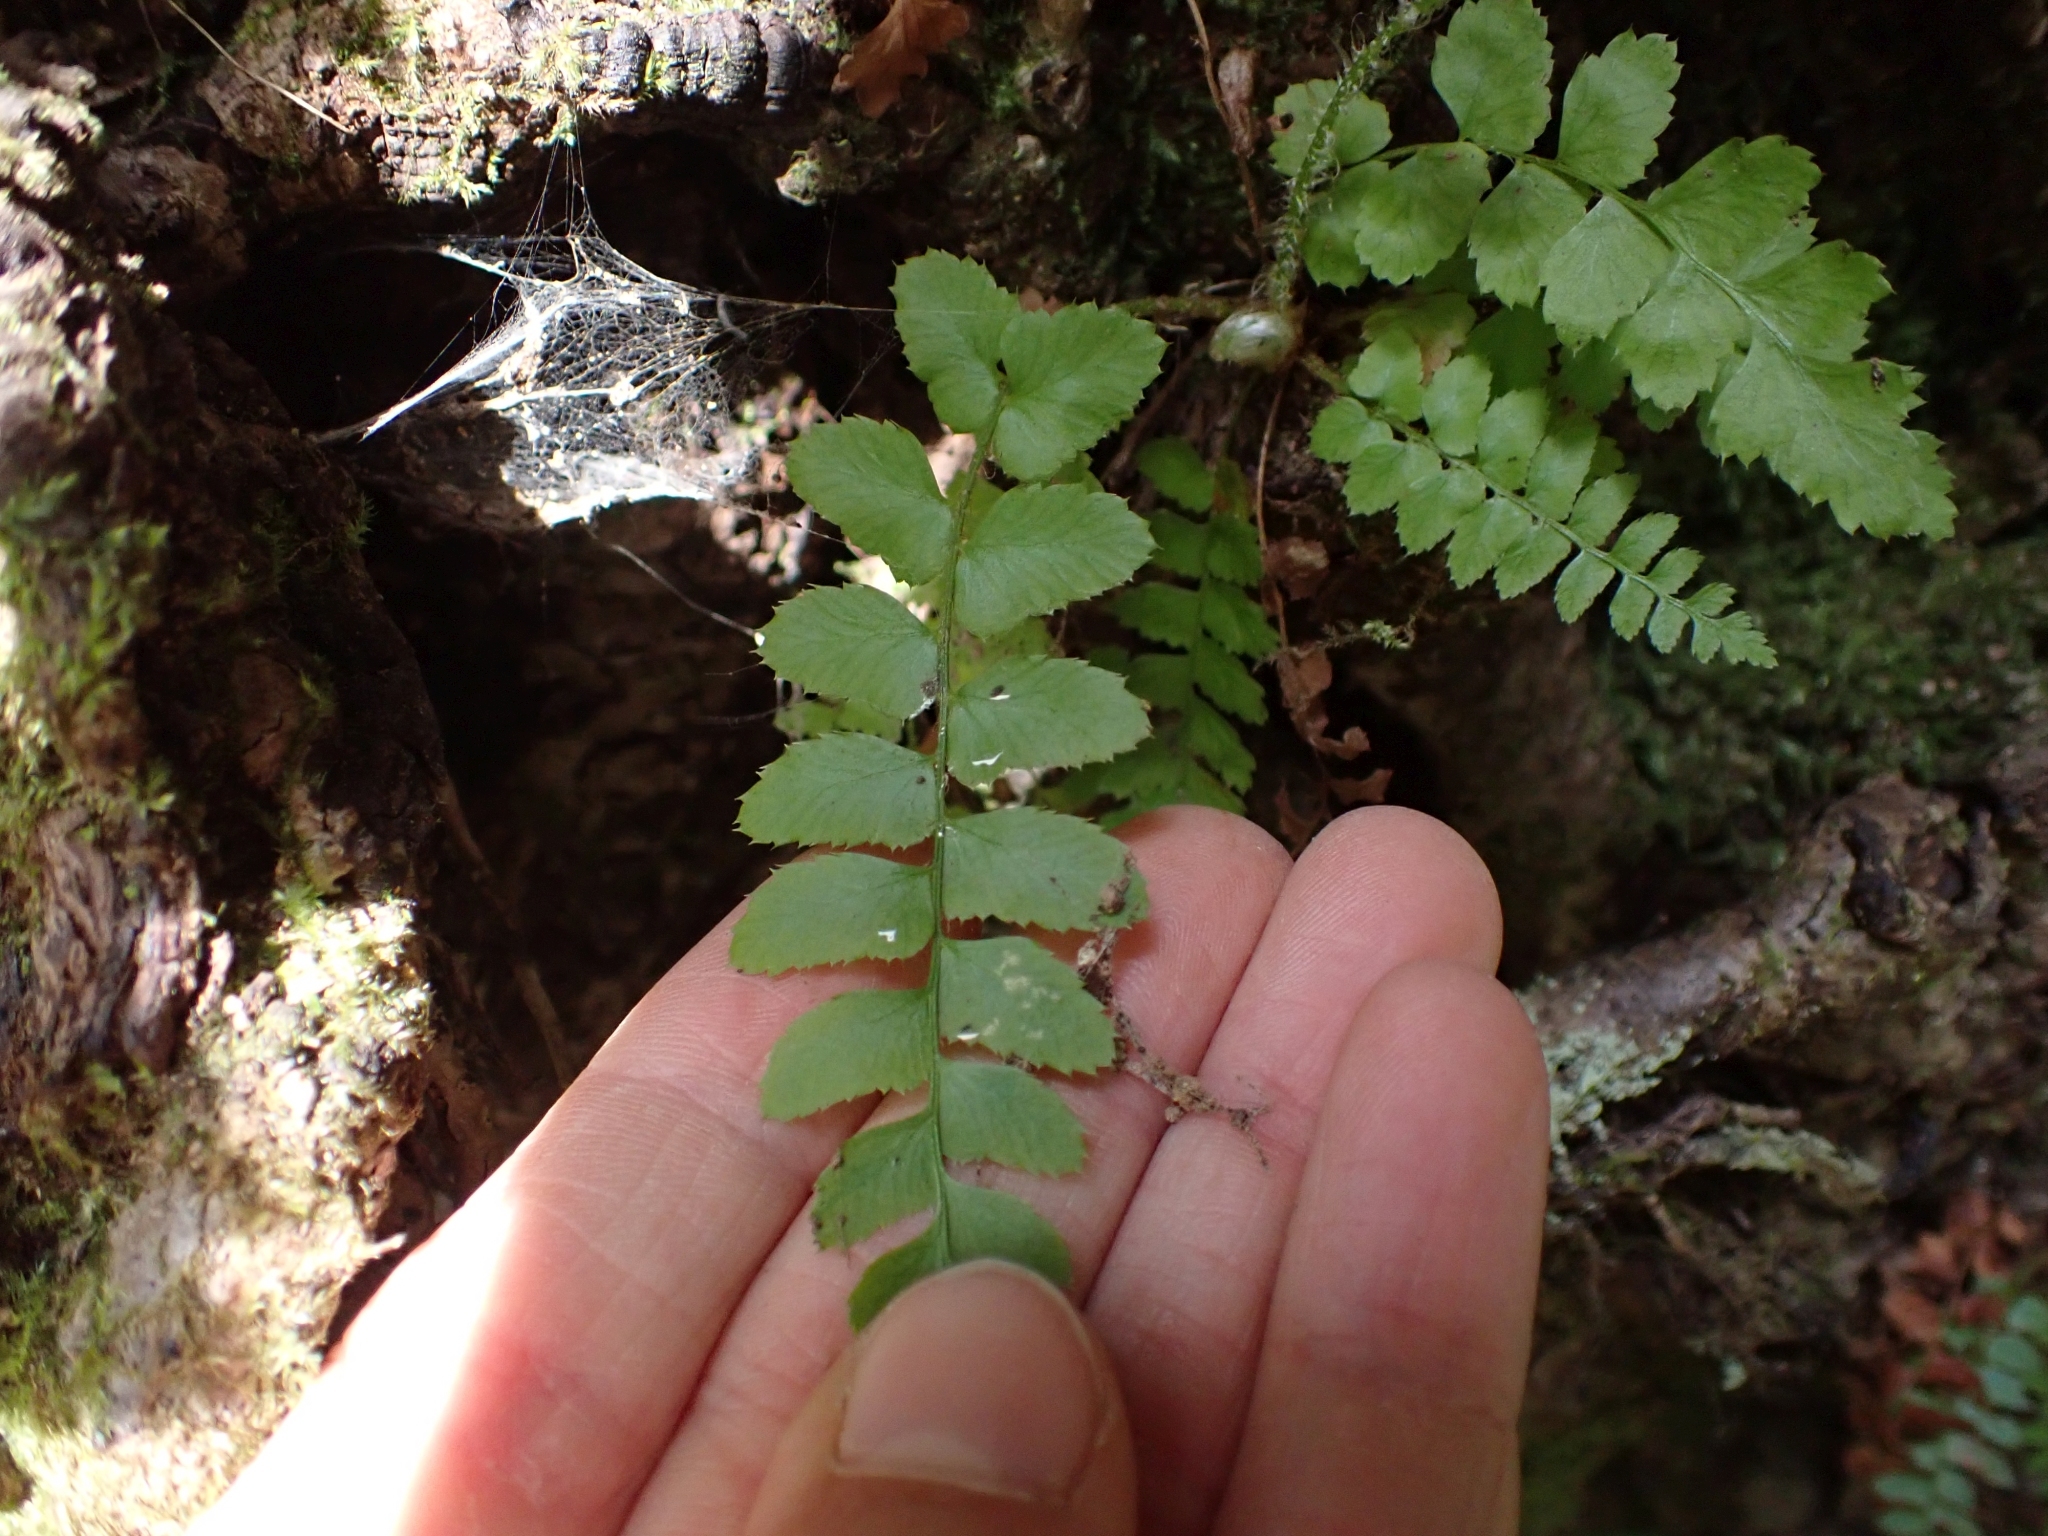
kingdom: Plantae
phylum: Tracheophyta
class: Polypodiopsida
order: Polypodiales
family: Dryopteridaceae
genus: Polystichum
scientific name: Polystichum munitum
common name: Western sword-fern
